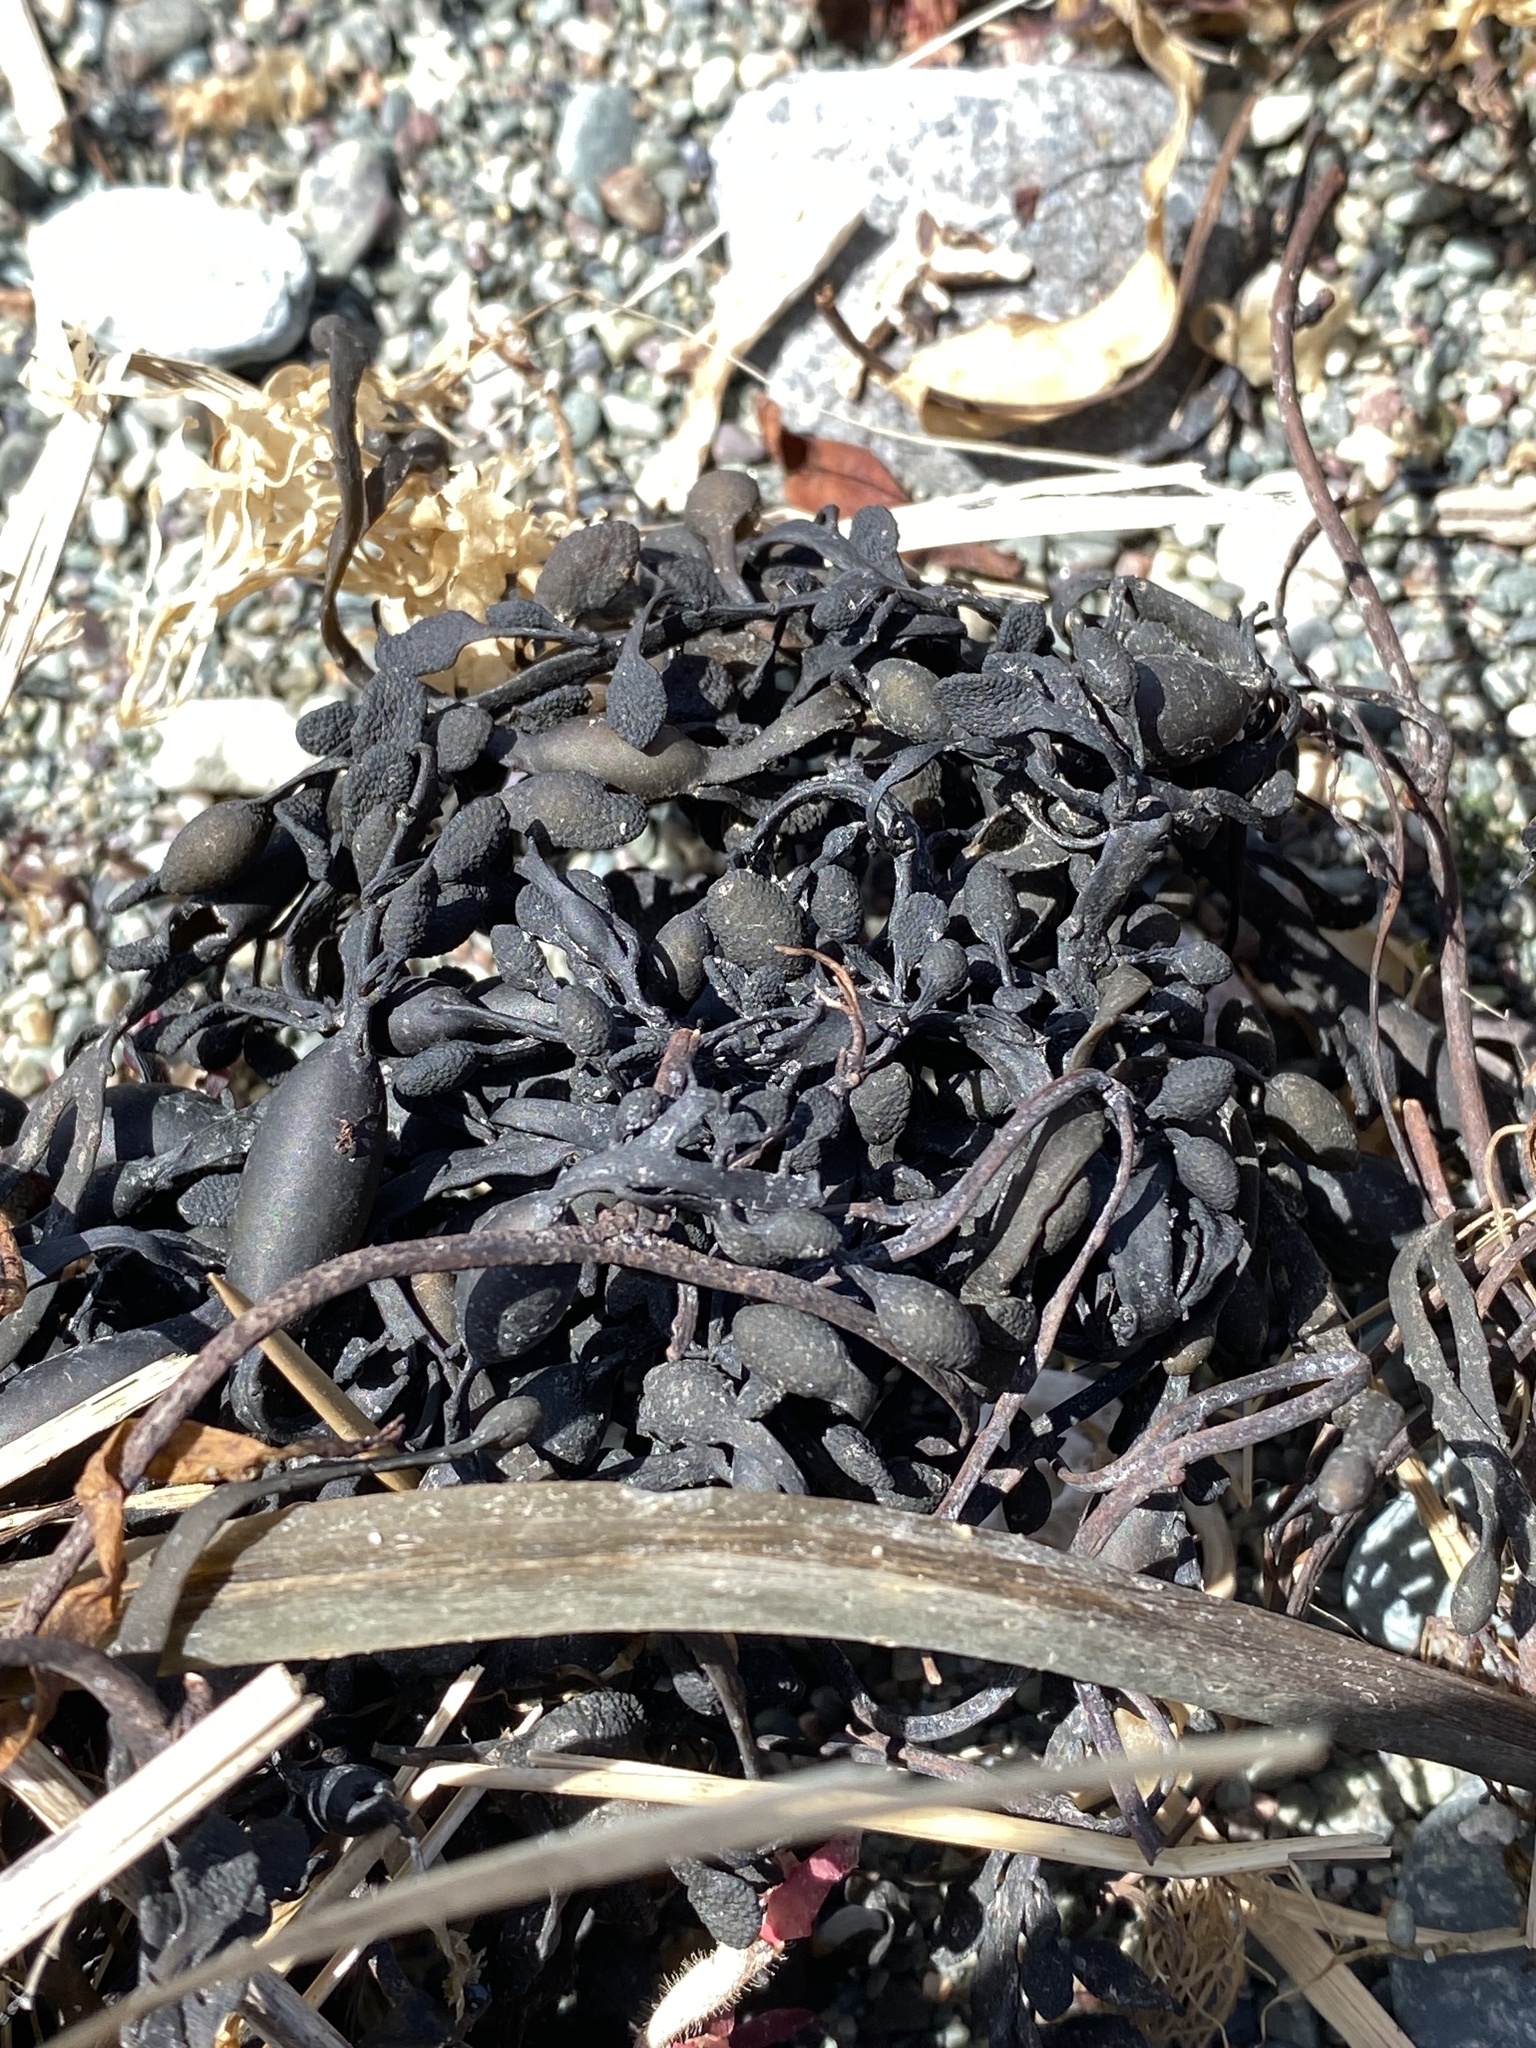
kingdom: Chromista
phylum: Ochrophyta
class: Phaeophyceae
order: Fucales
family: Fucaceae
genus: Ascophyllum
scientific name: Ascophyllum nodosum
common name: Knotted wrack
